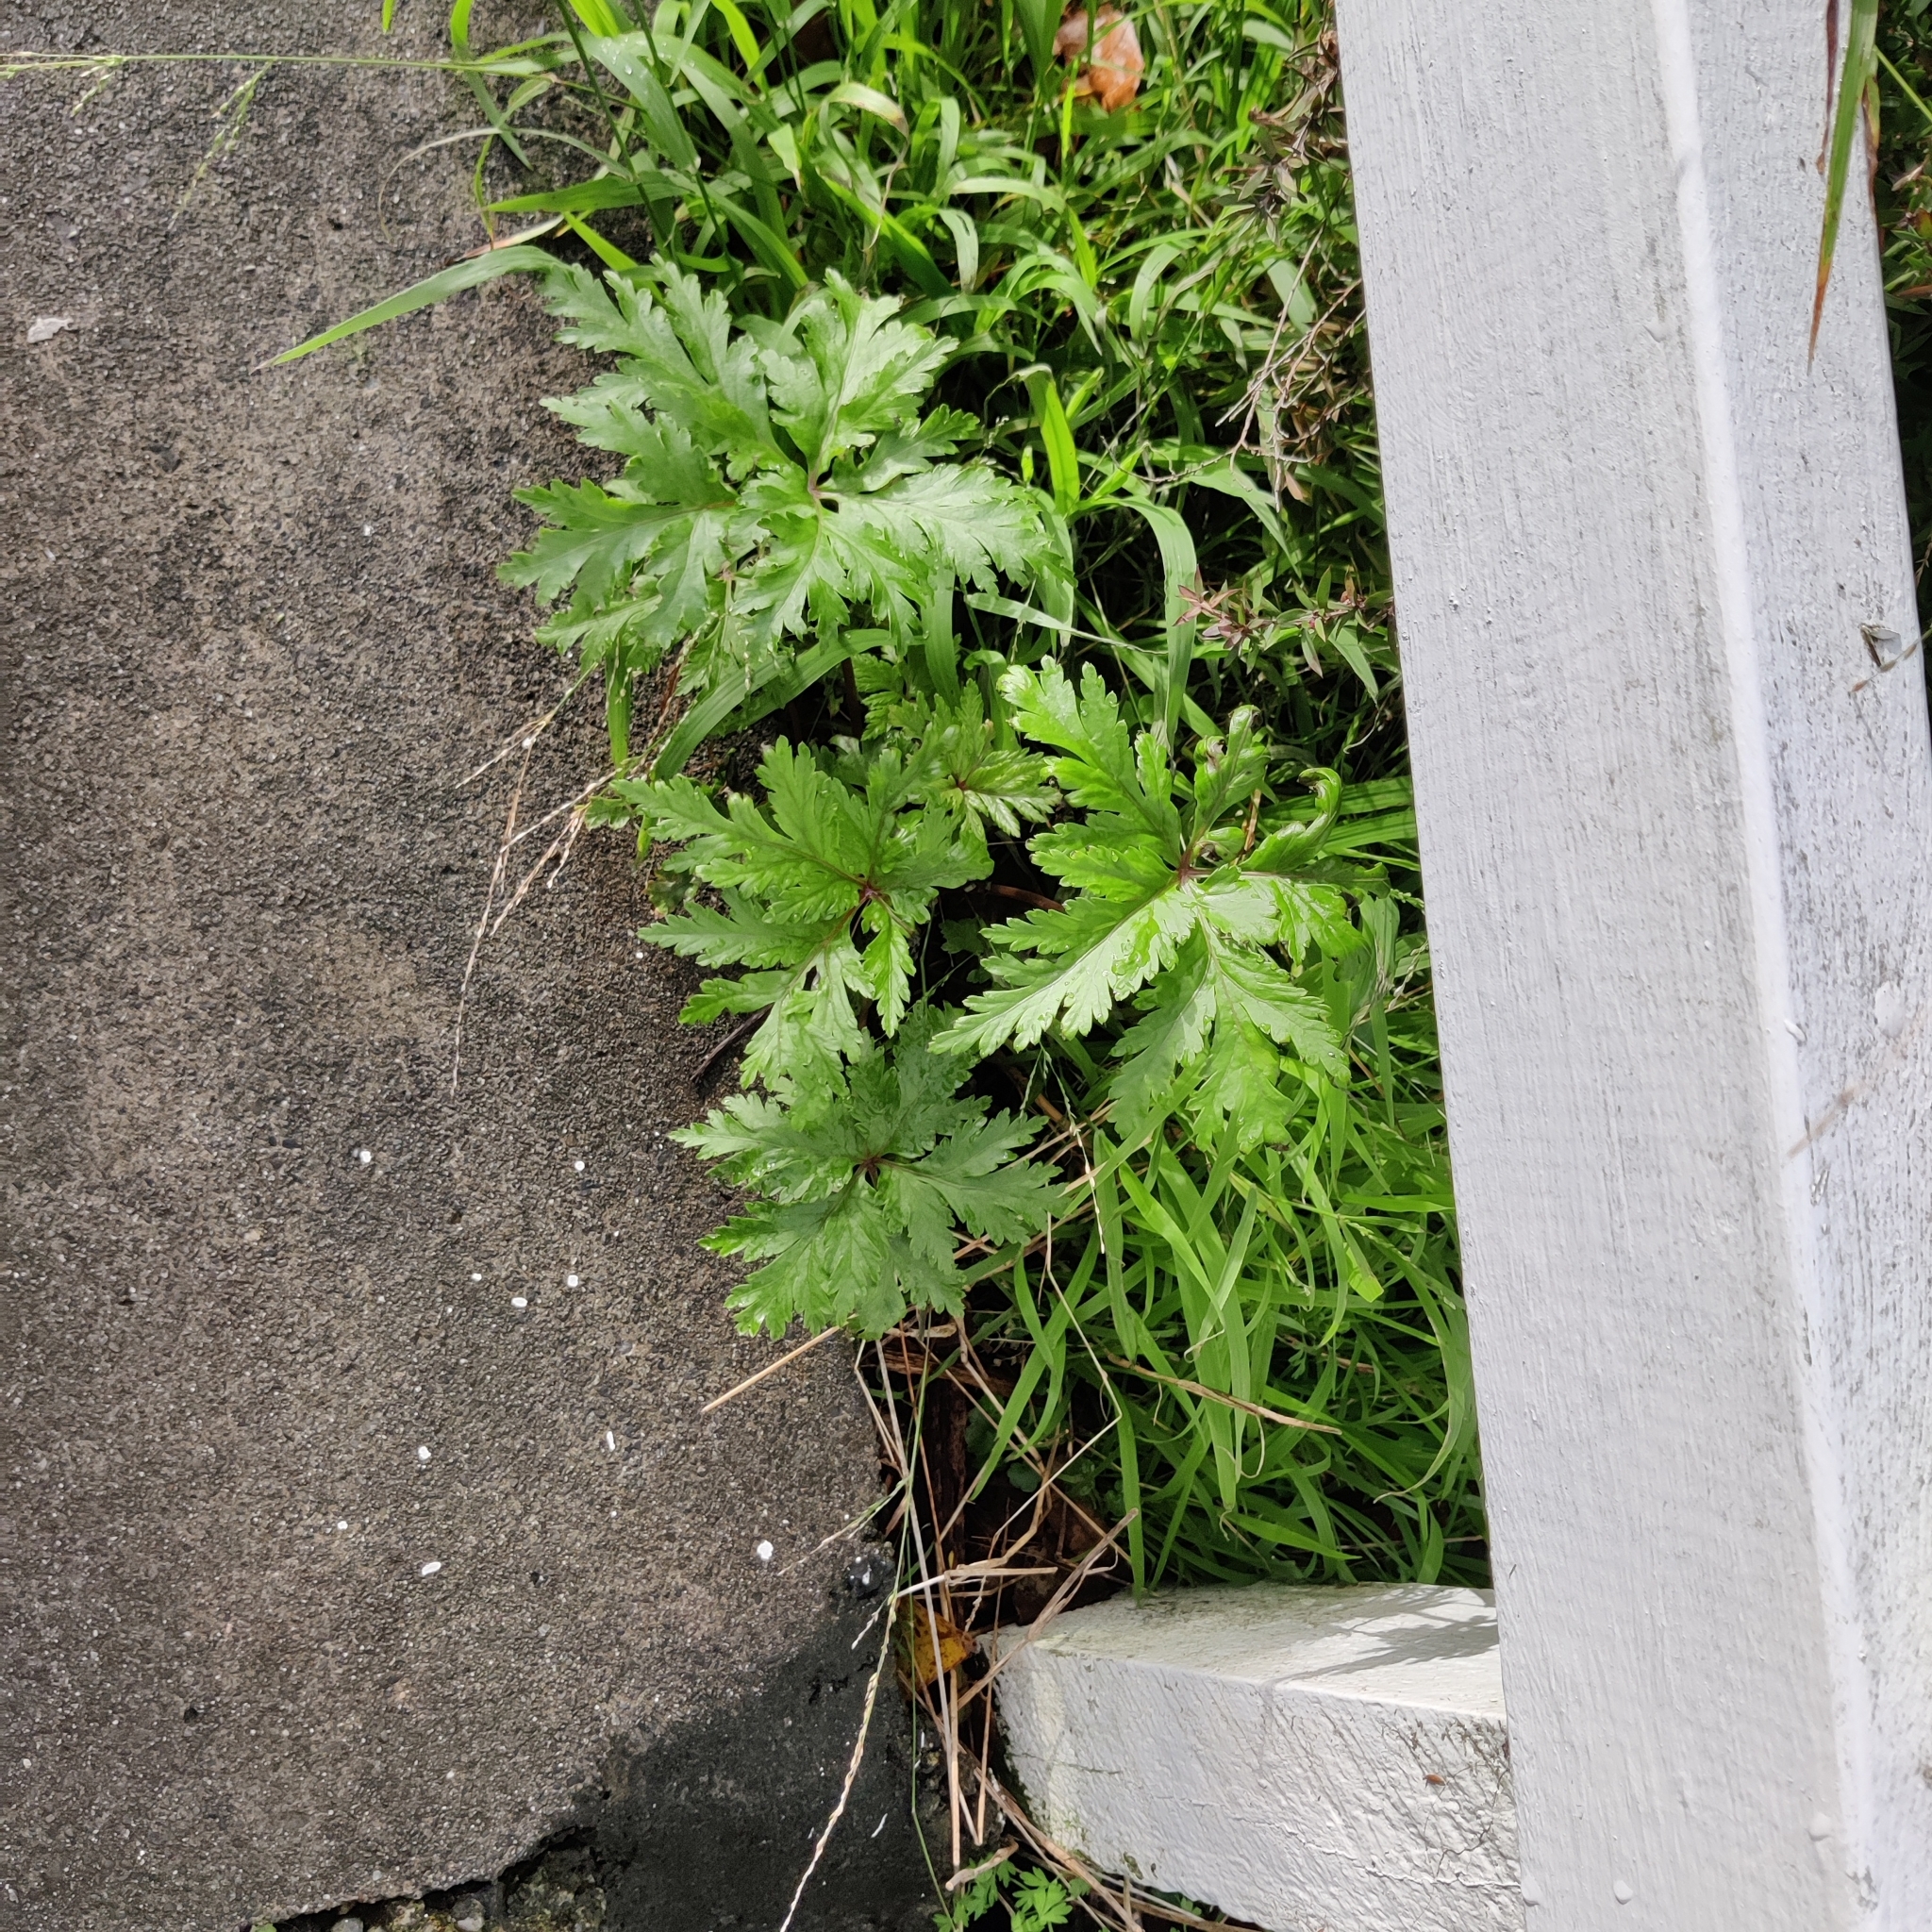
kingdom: Plantae
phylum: Tracheophyta
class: Magnoliopsida
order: Geraniales
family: Geraniaceae
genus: Geranium
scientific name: Geranium maderense
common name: Giant herb-robert
